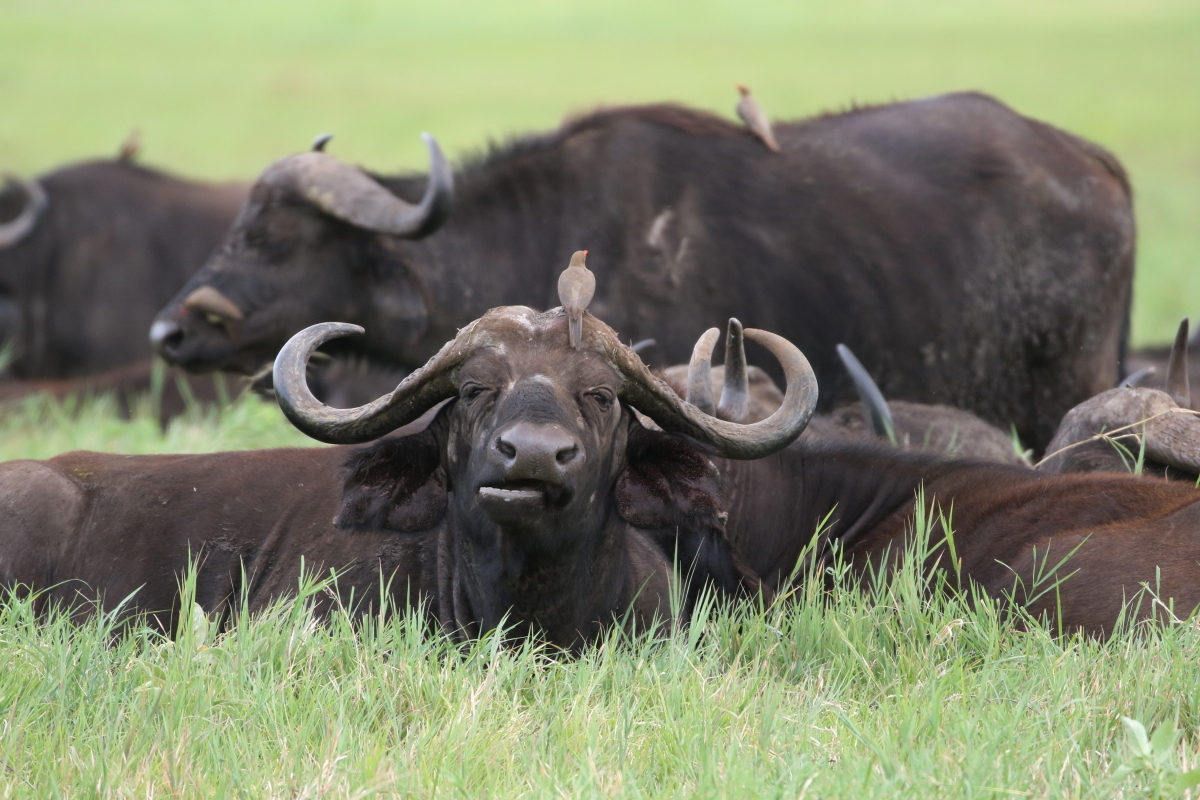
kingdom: Animalia
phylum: Chordata
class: Mammalia
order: Artiodactyla
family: Bovidae
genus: Syncerus
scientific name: Syncerus caffer
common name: African buffalo
